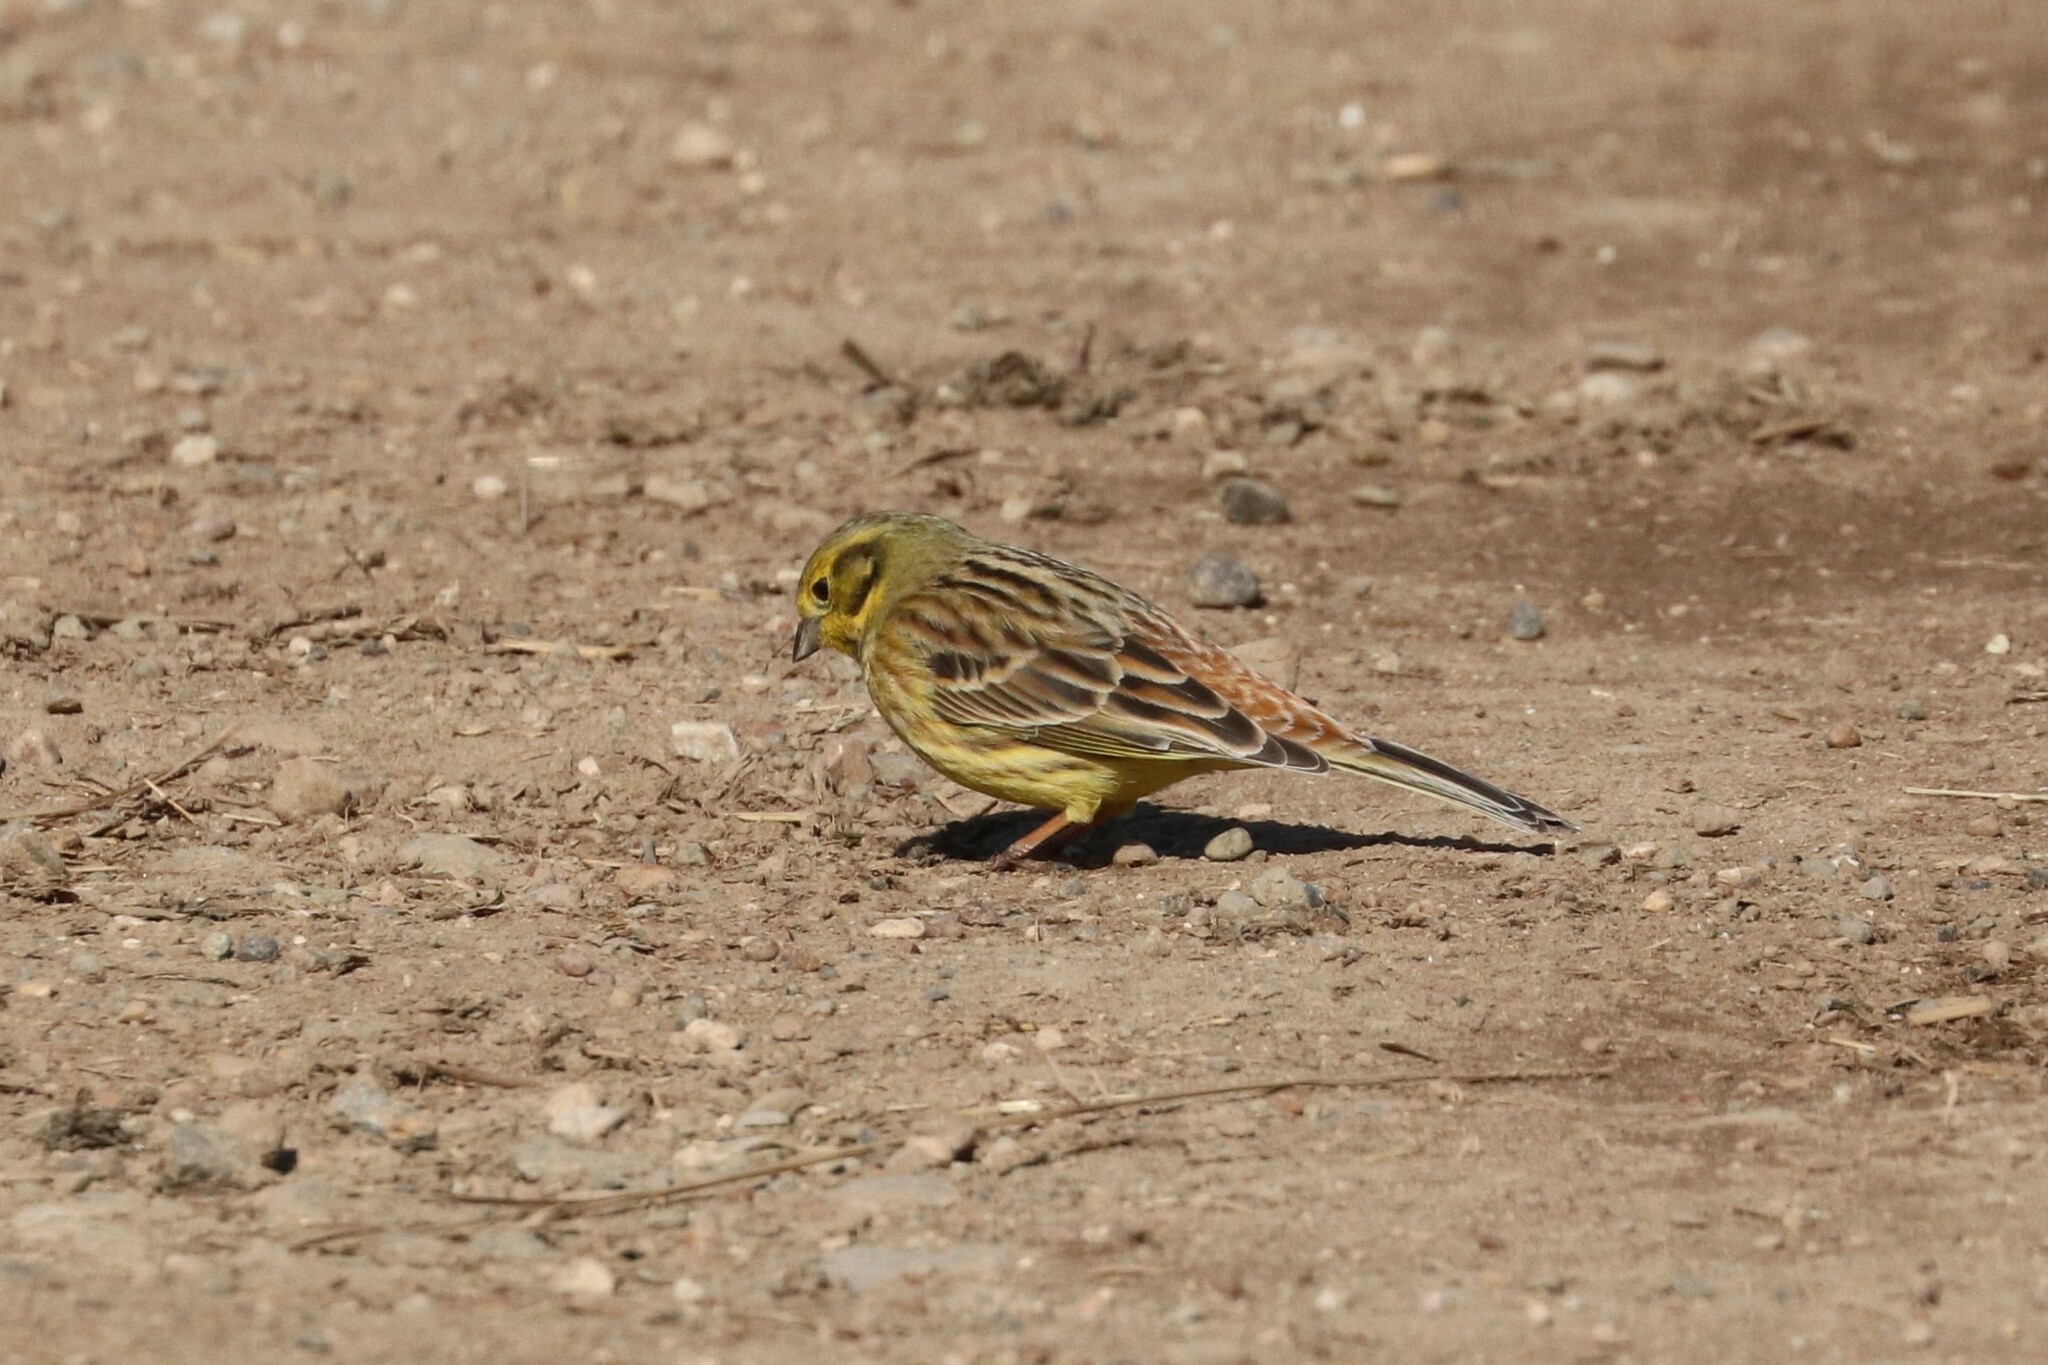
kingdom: Animalia
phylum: Chordata
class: Aves
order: Passeriformes
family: Emberizidae
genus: Emberiza
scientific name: Emberiza citrinella
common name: Yellowhammer
